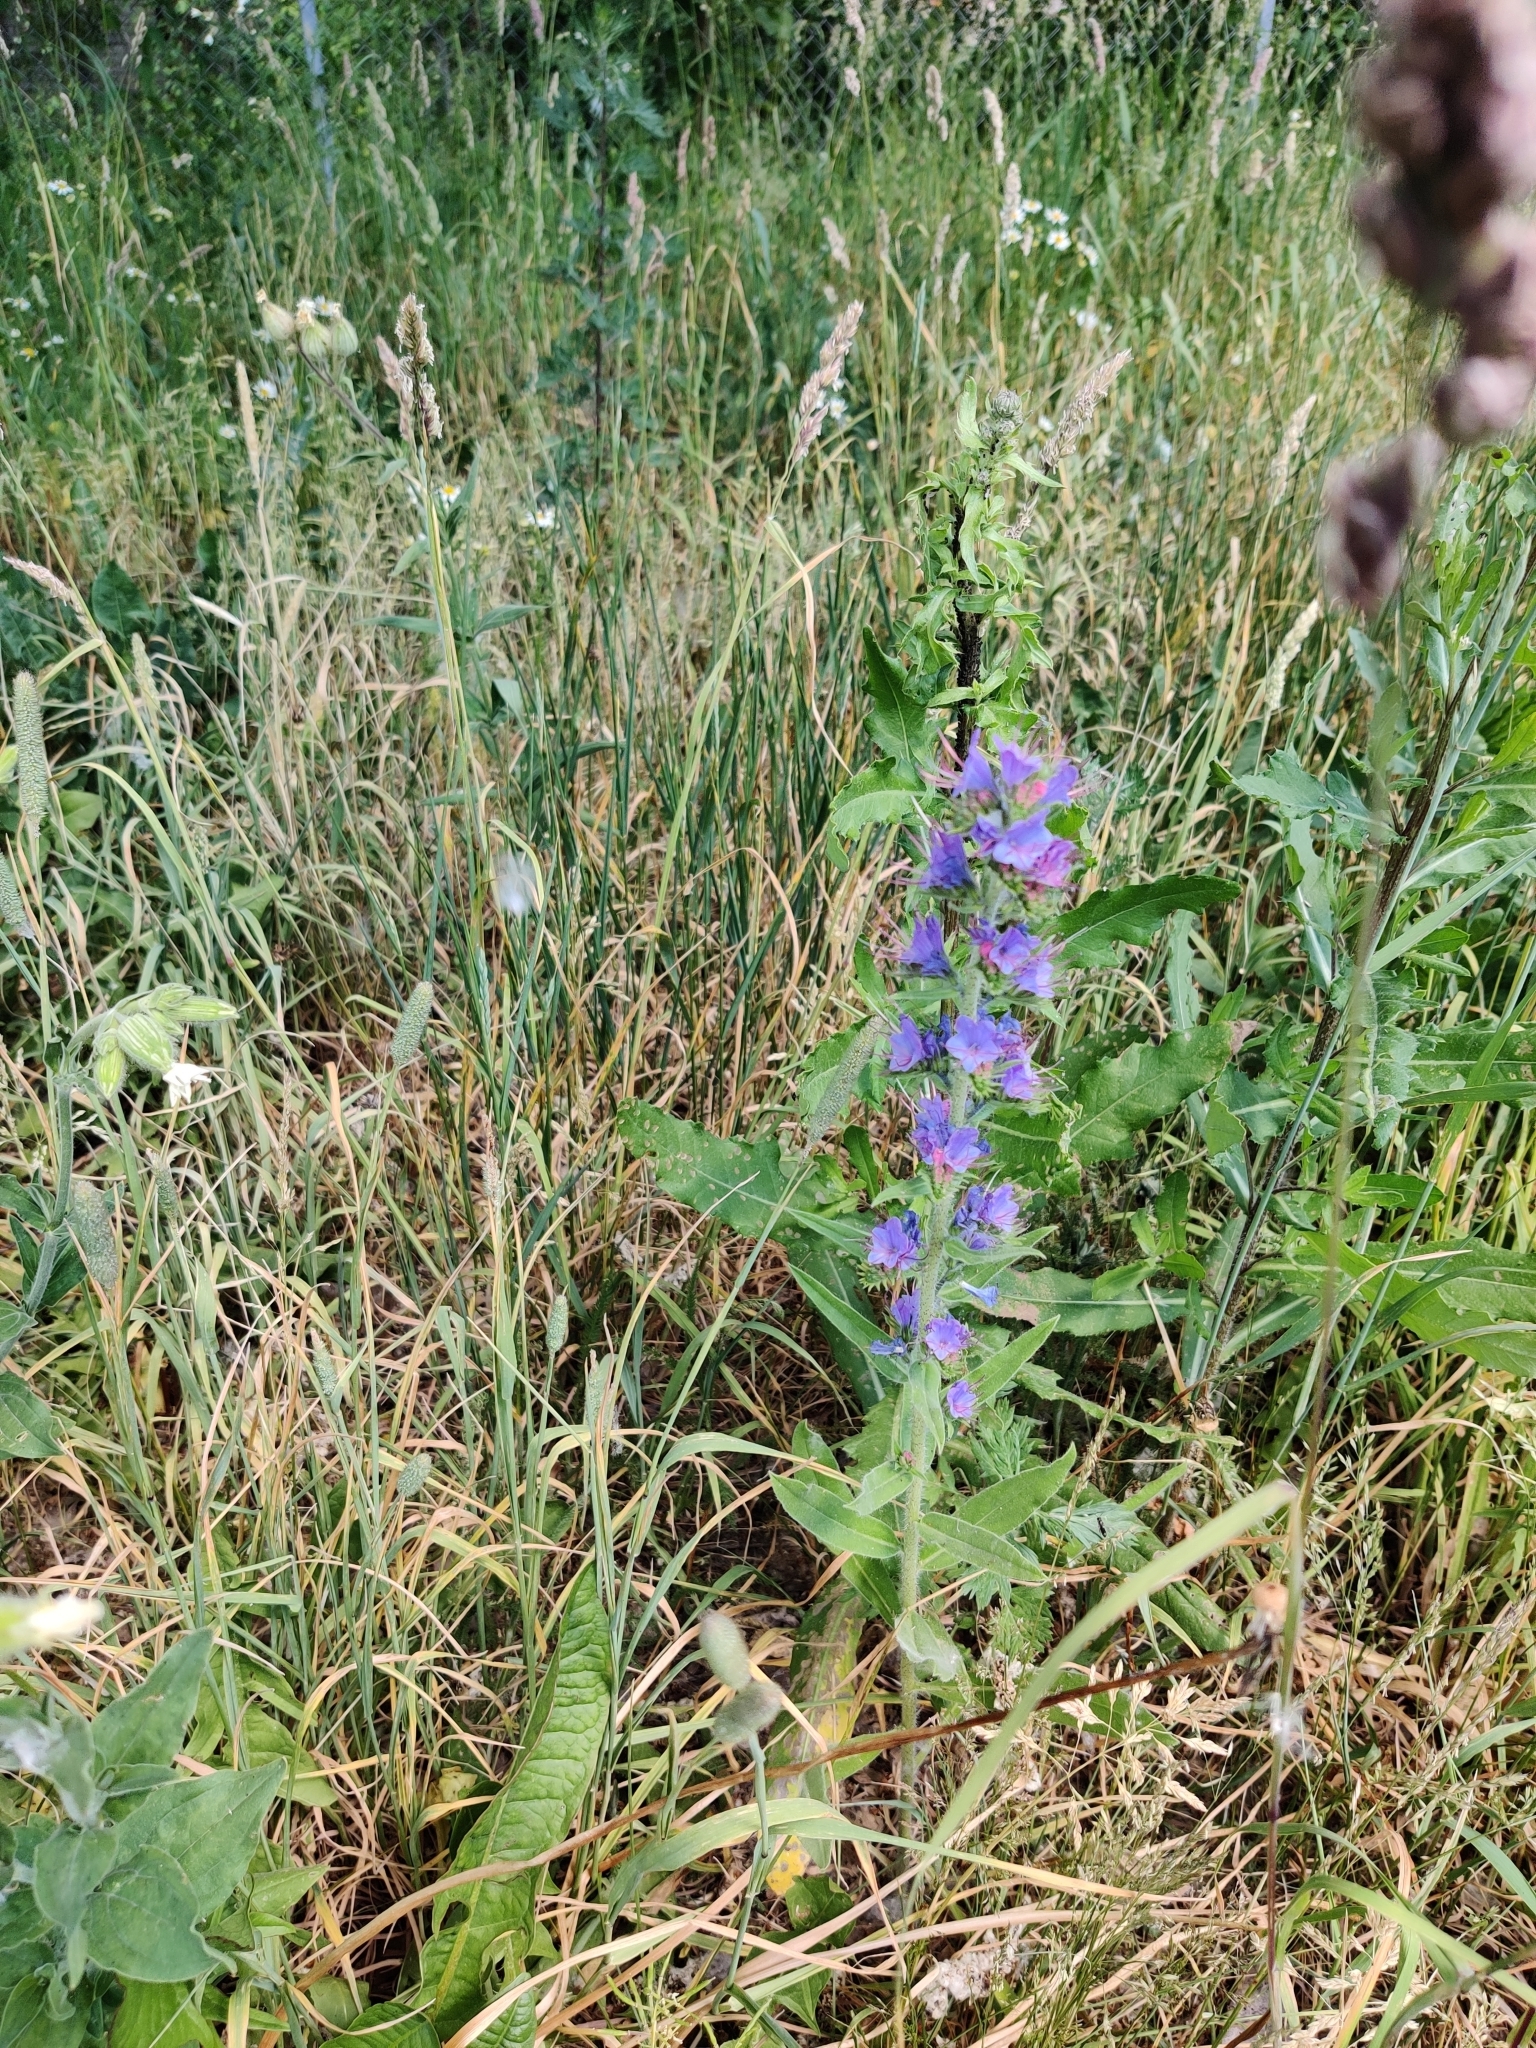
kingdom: Plantae
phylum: Tracheophyta
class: Magnoliopsida
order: Boraginales
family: Boraginaceae
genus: Echium
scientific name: Echium vulgare
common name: Common viper's bugloss
